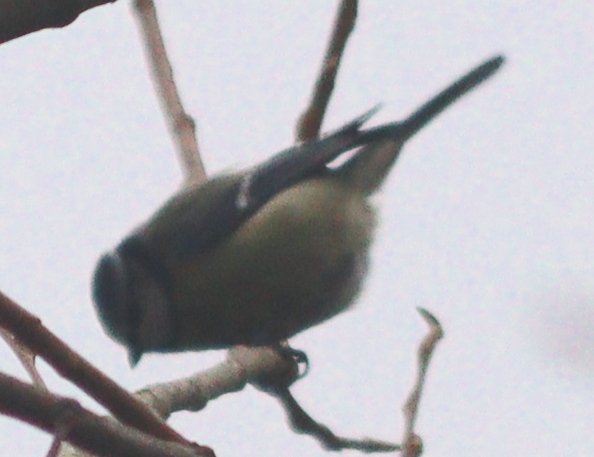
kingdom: Animalia
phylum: Chordata
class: Aves
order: Passeriformes
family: Paridae
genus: Cyanistes
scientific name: Cyanistes caeruleus
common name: Eurasian blue tit
